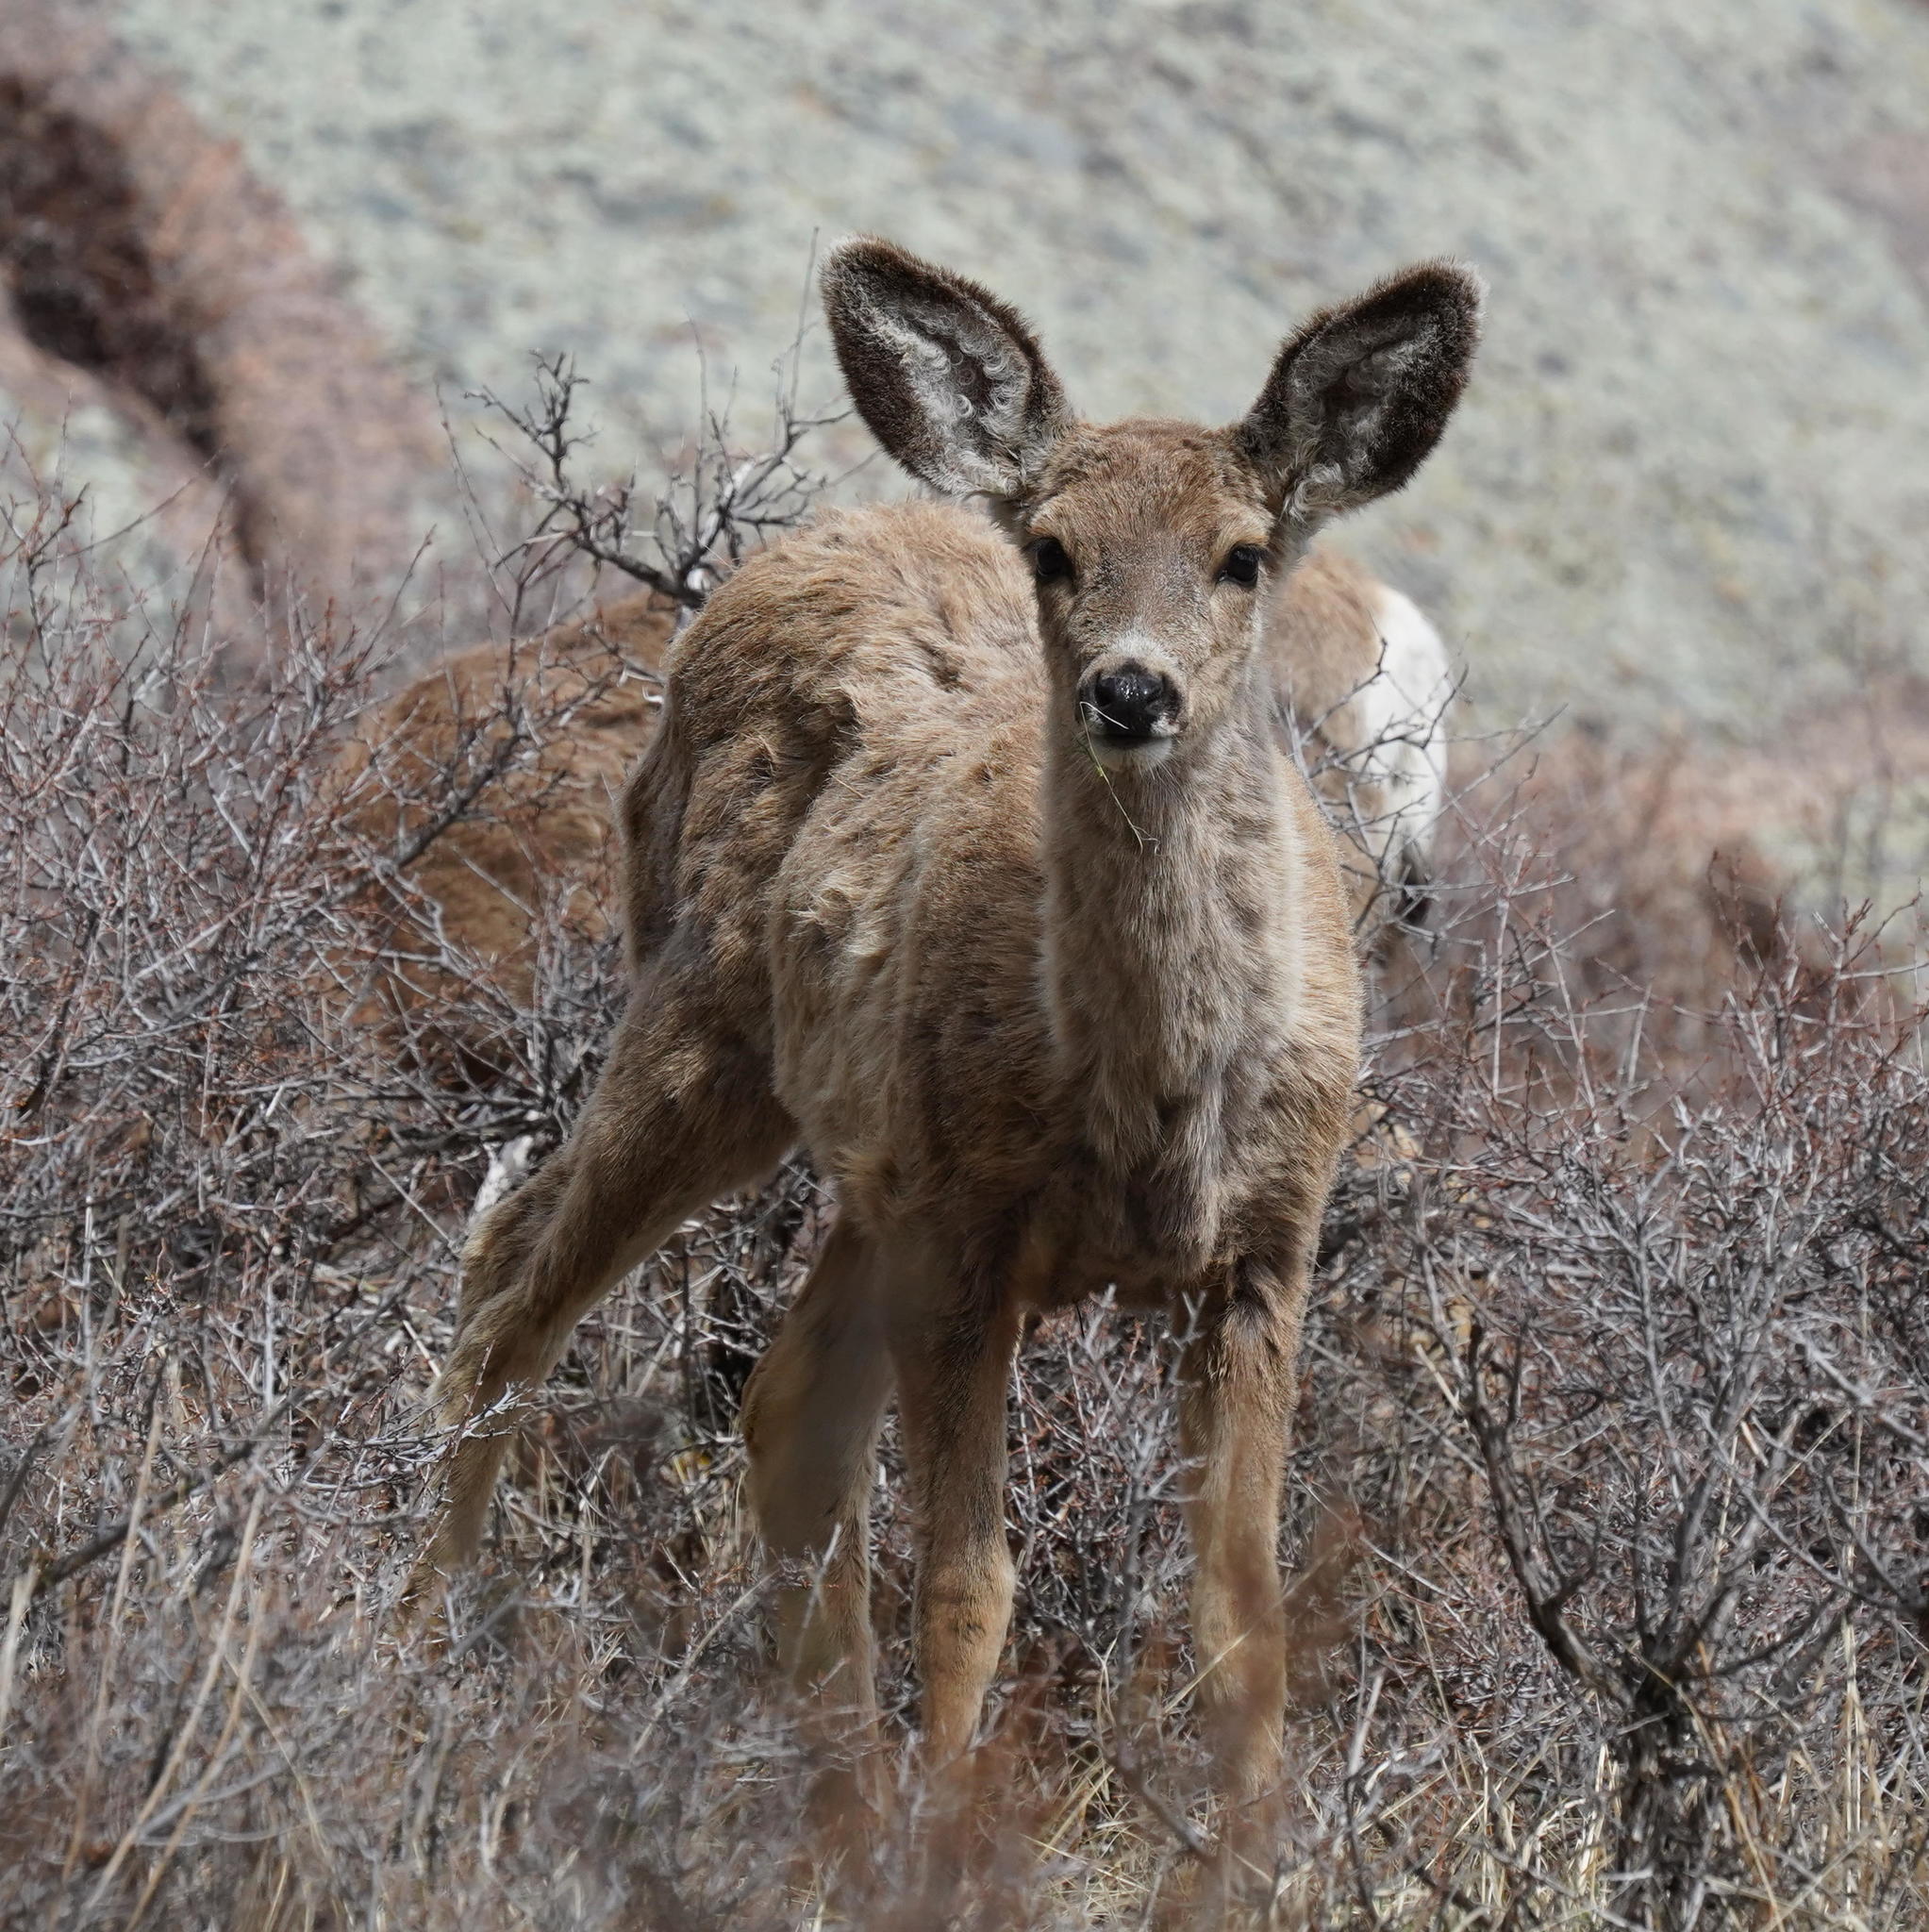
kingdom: Animalia
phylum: Chordata
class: Mammalia
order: Artiodactyla
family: Cervidae
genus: Odocoileus
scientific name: Odocoileus hemionus
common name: Mule deer
